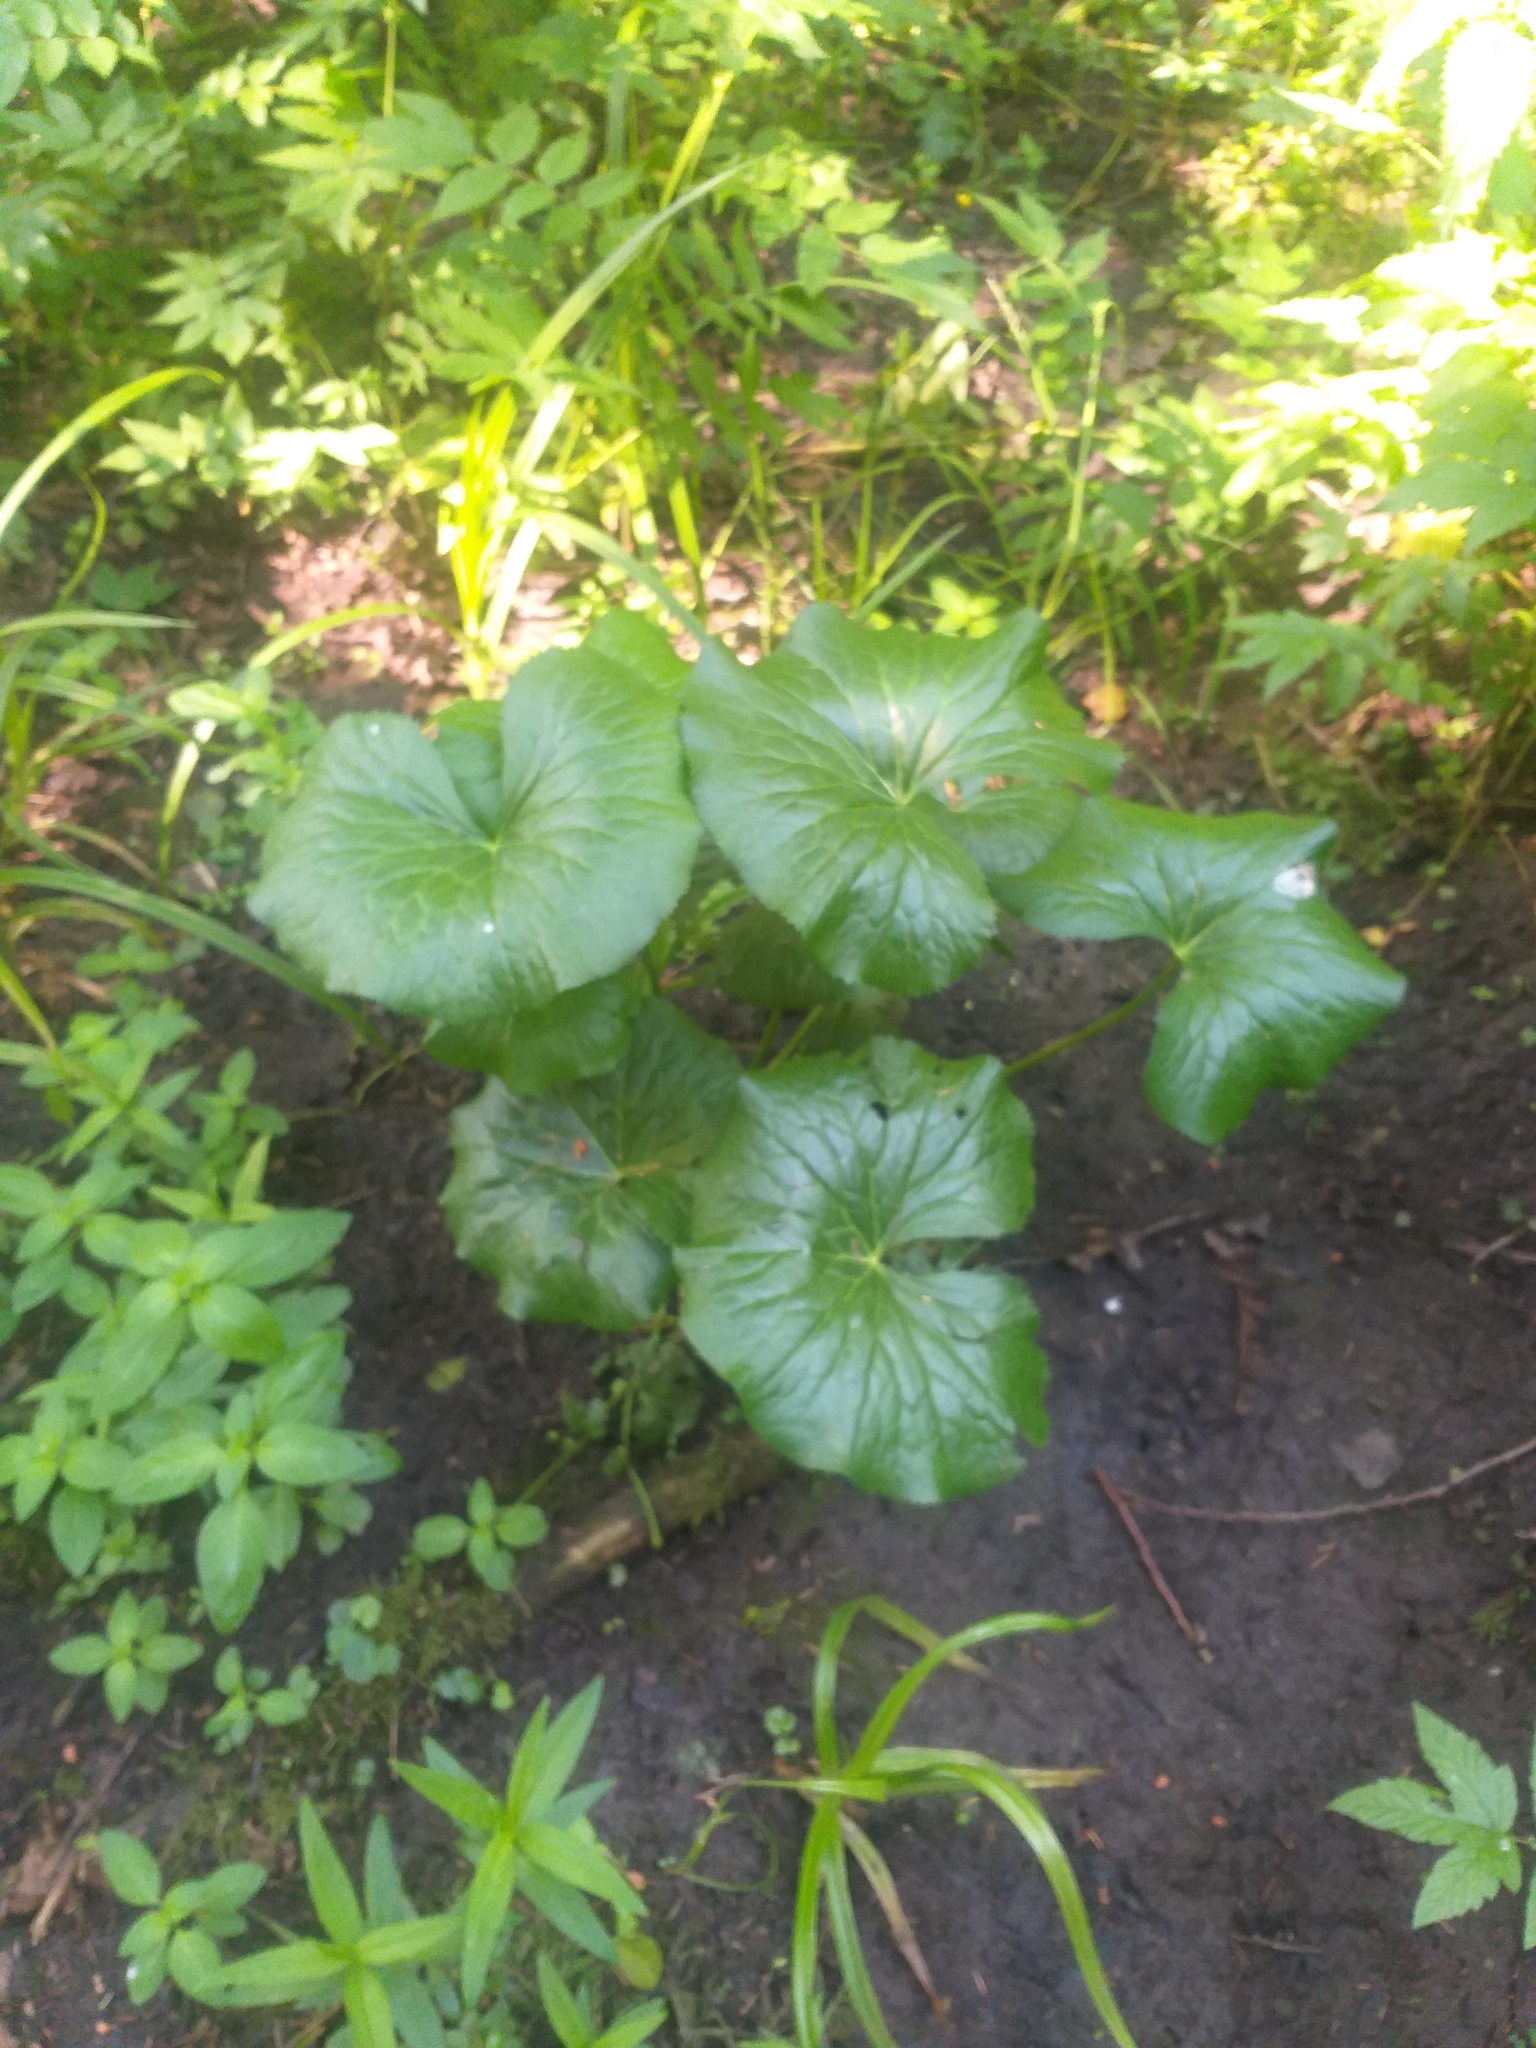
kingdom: Plantae
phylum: Tracheophyta
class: Magnoliopsida
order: Ranunculales
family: Ranunculaceae
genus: Caltha
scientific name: Caltha palustris
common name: Marsh marigold
